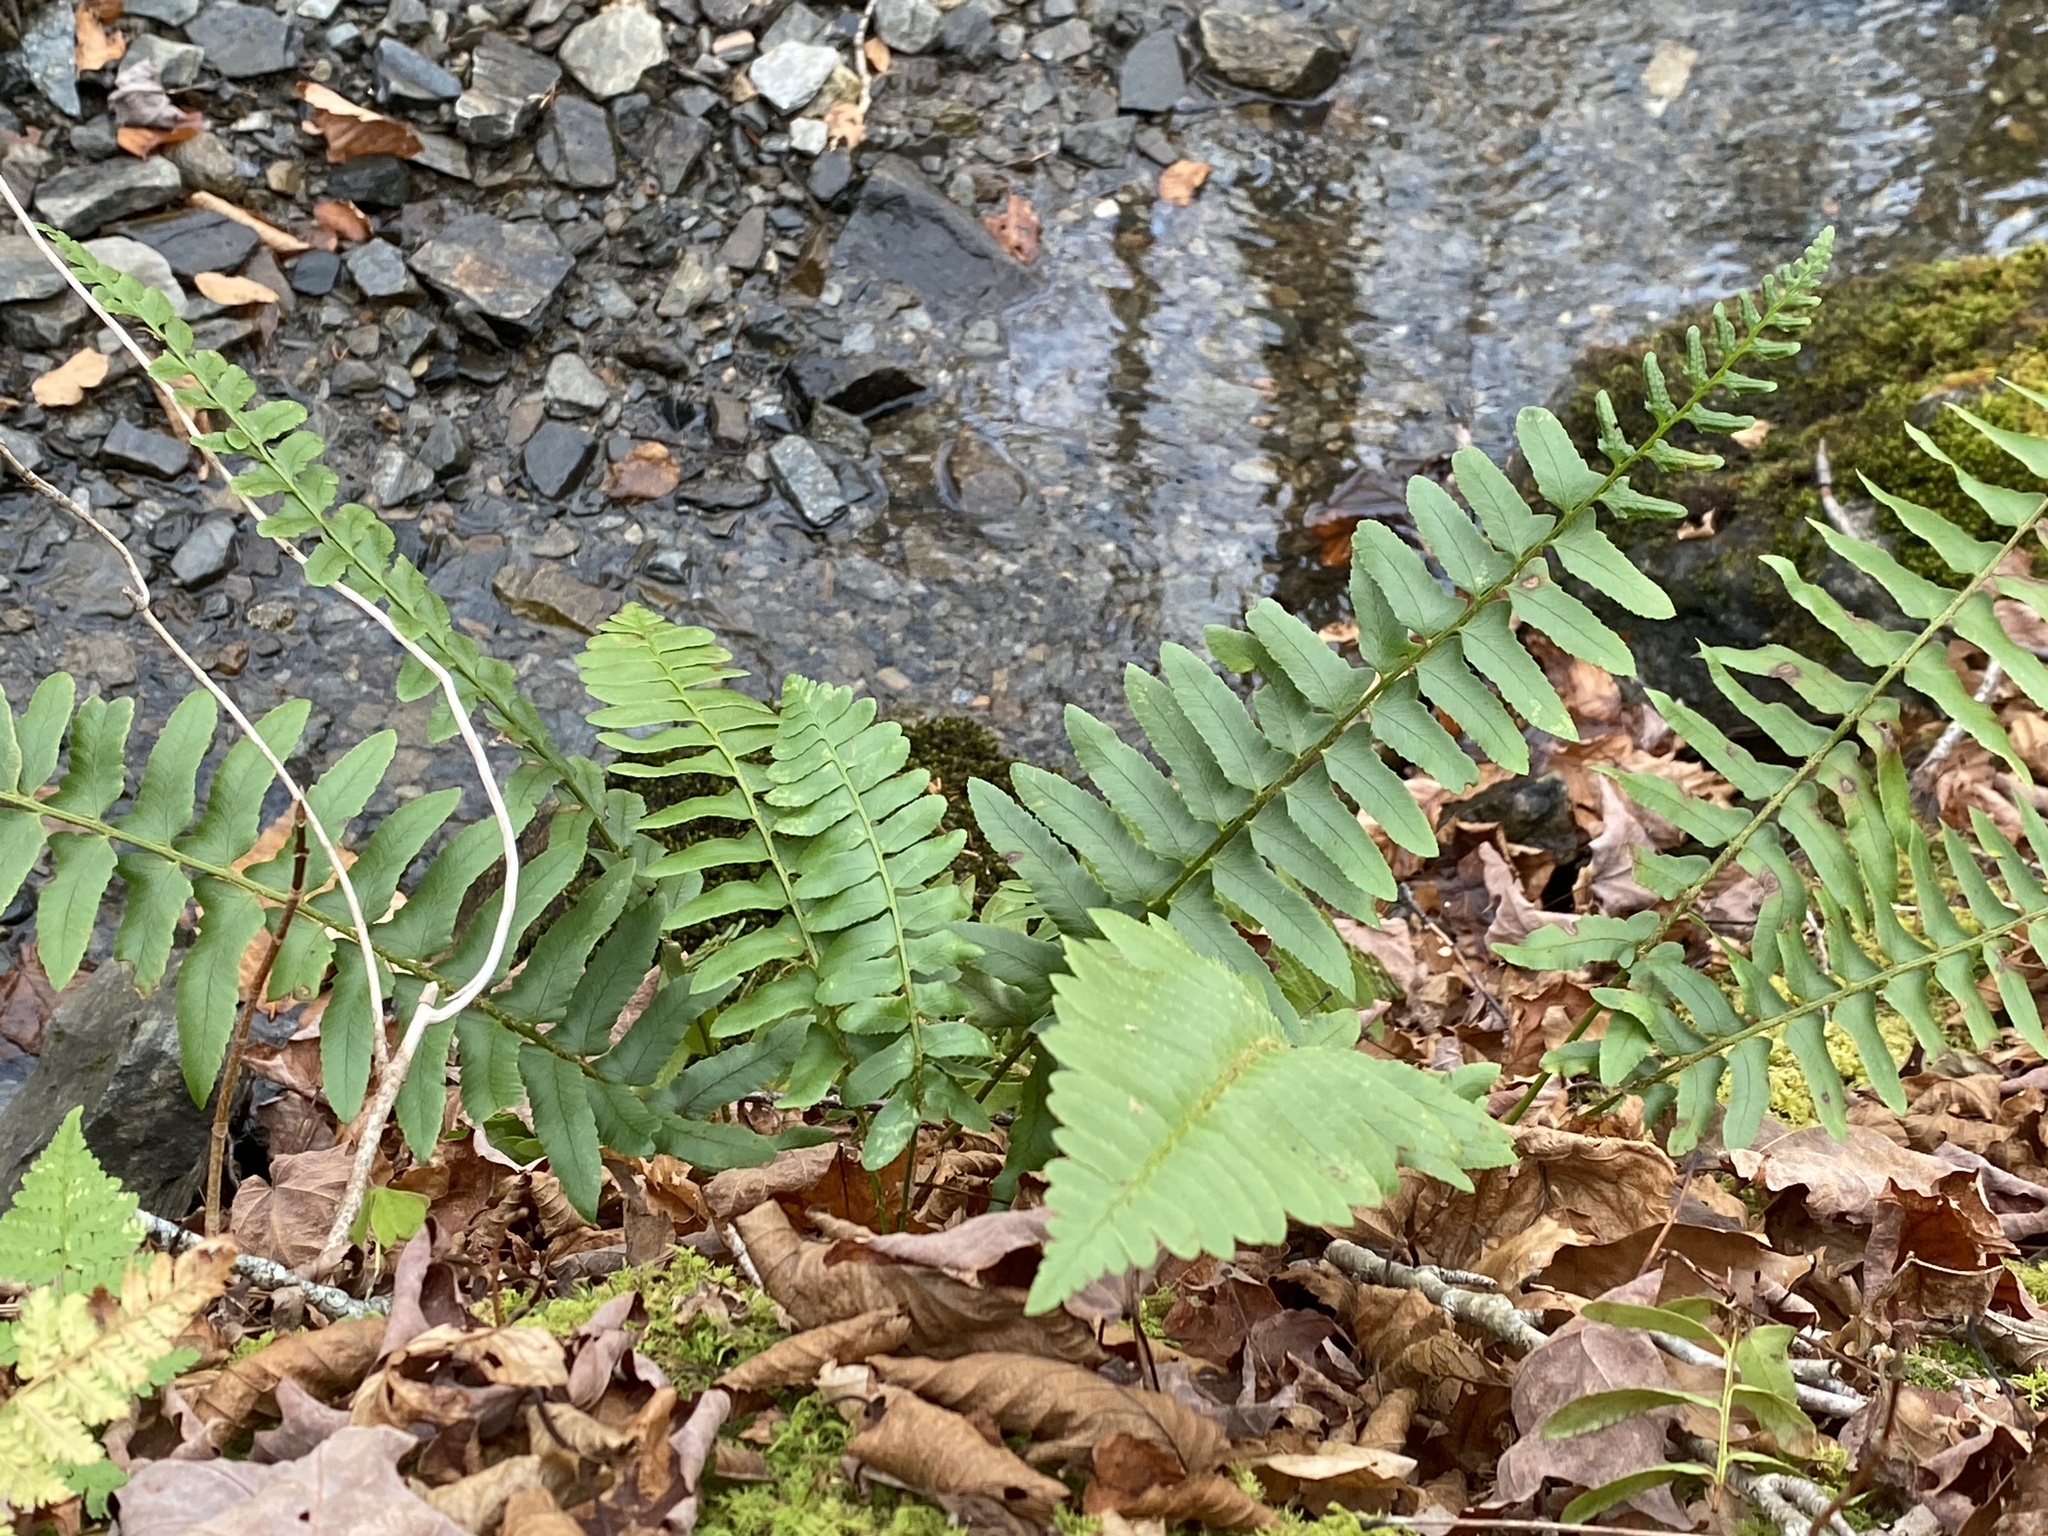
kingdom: Plantae
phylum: Tracheophyta
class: Polypodiopsida
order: Polypodiales
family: Dryopteridaceae
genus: Polystichum
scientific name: Polystichum acrostichoides
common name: Christmas fern
